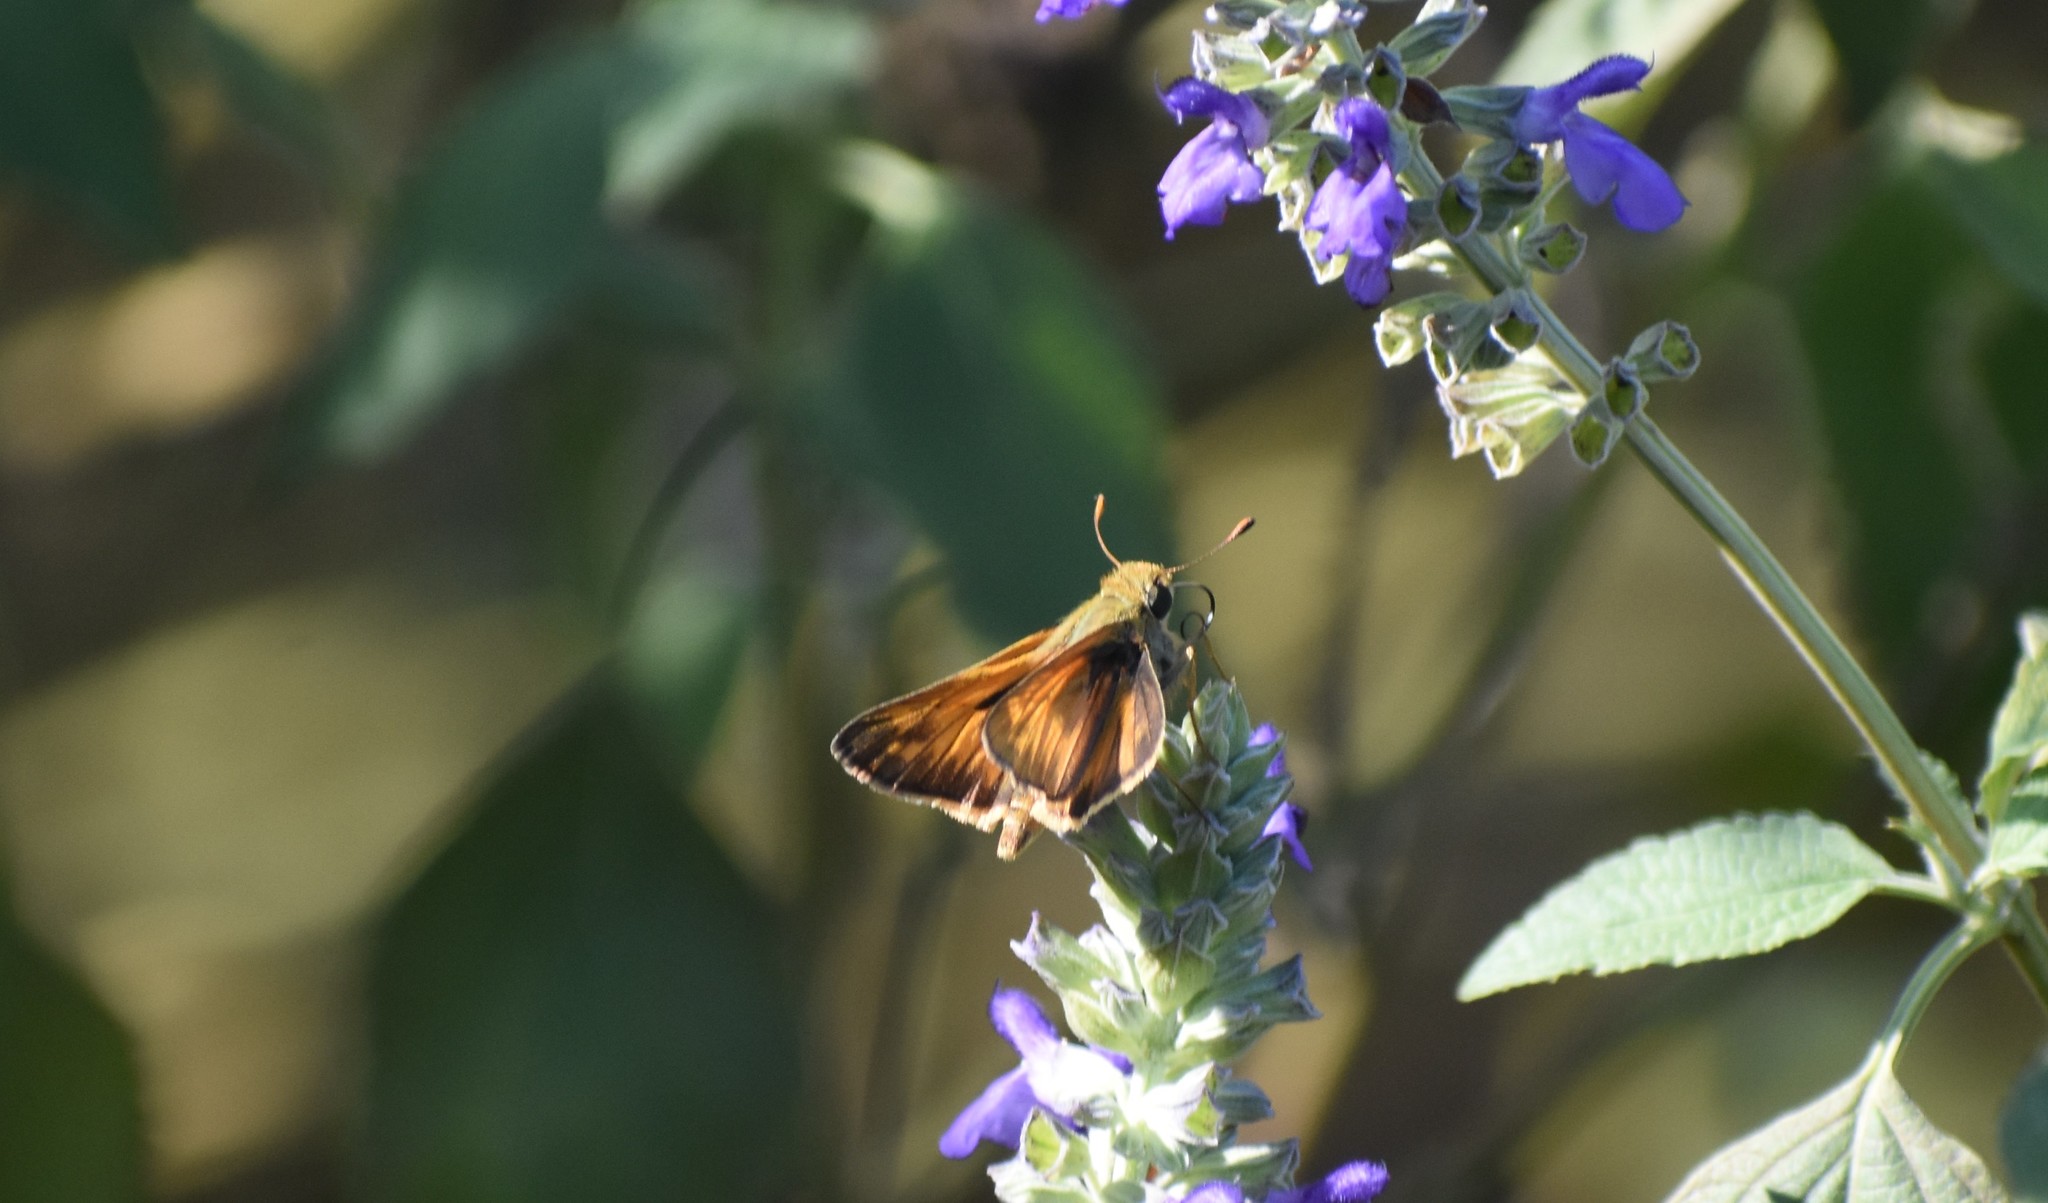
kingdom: Animalia
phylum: Arthropoda
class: Insecta
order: Lepidoptera
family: Hesperiidae
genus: Atalopedes
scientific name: Atalopedes
